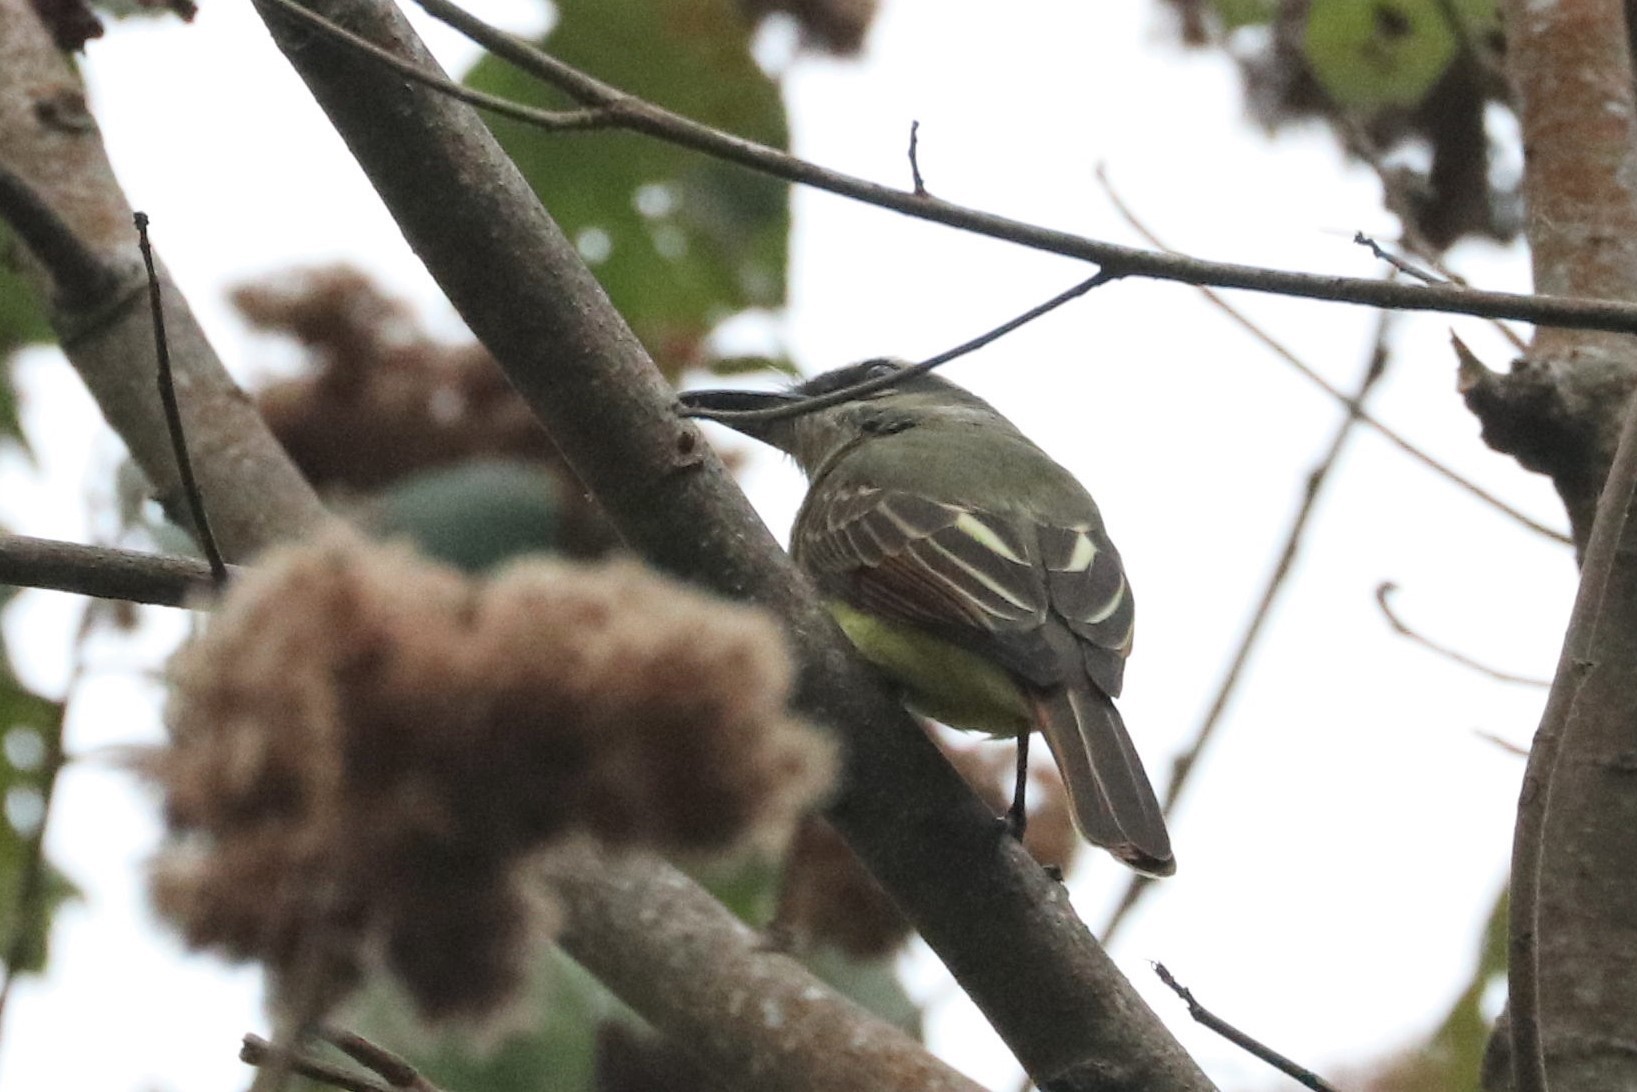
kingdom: Animalia
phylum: Chordata
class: Aves
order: Passeriformes
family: Tyrannidae
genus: Myiodynastes
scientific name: Myiodynastes hemichrysus
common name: Golden-bellied flycatcher
